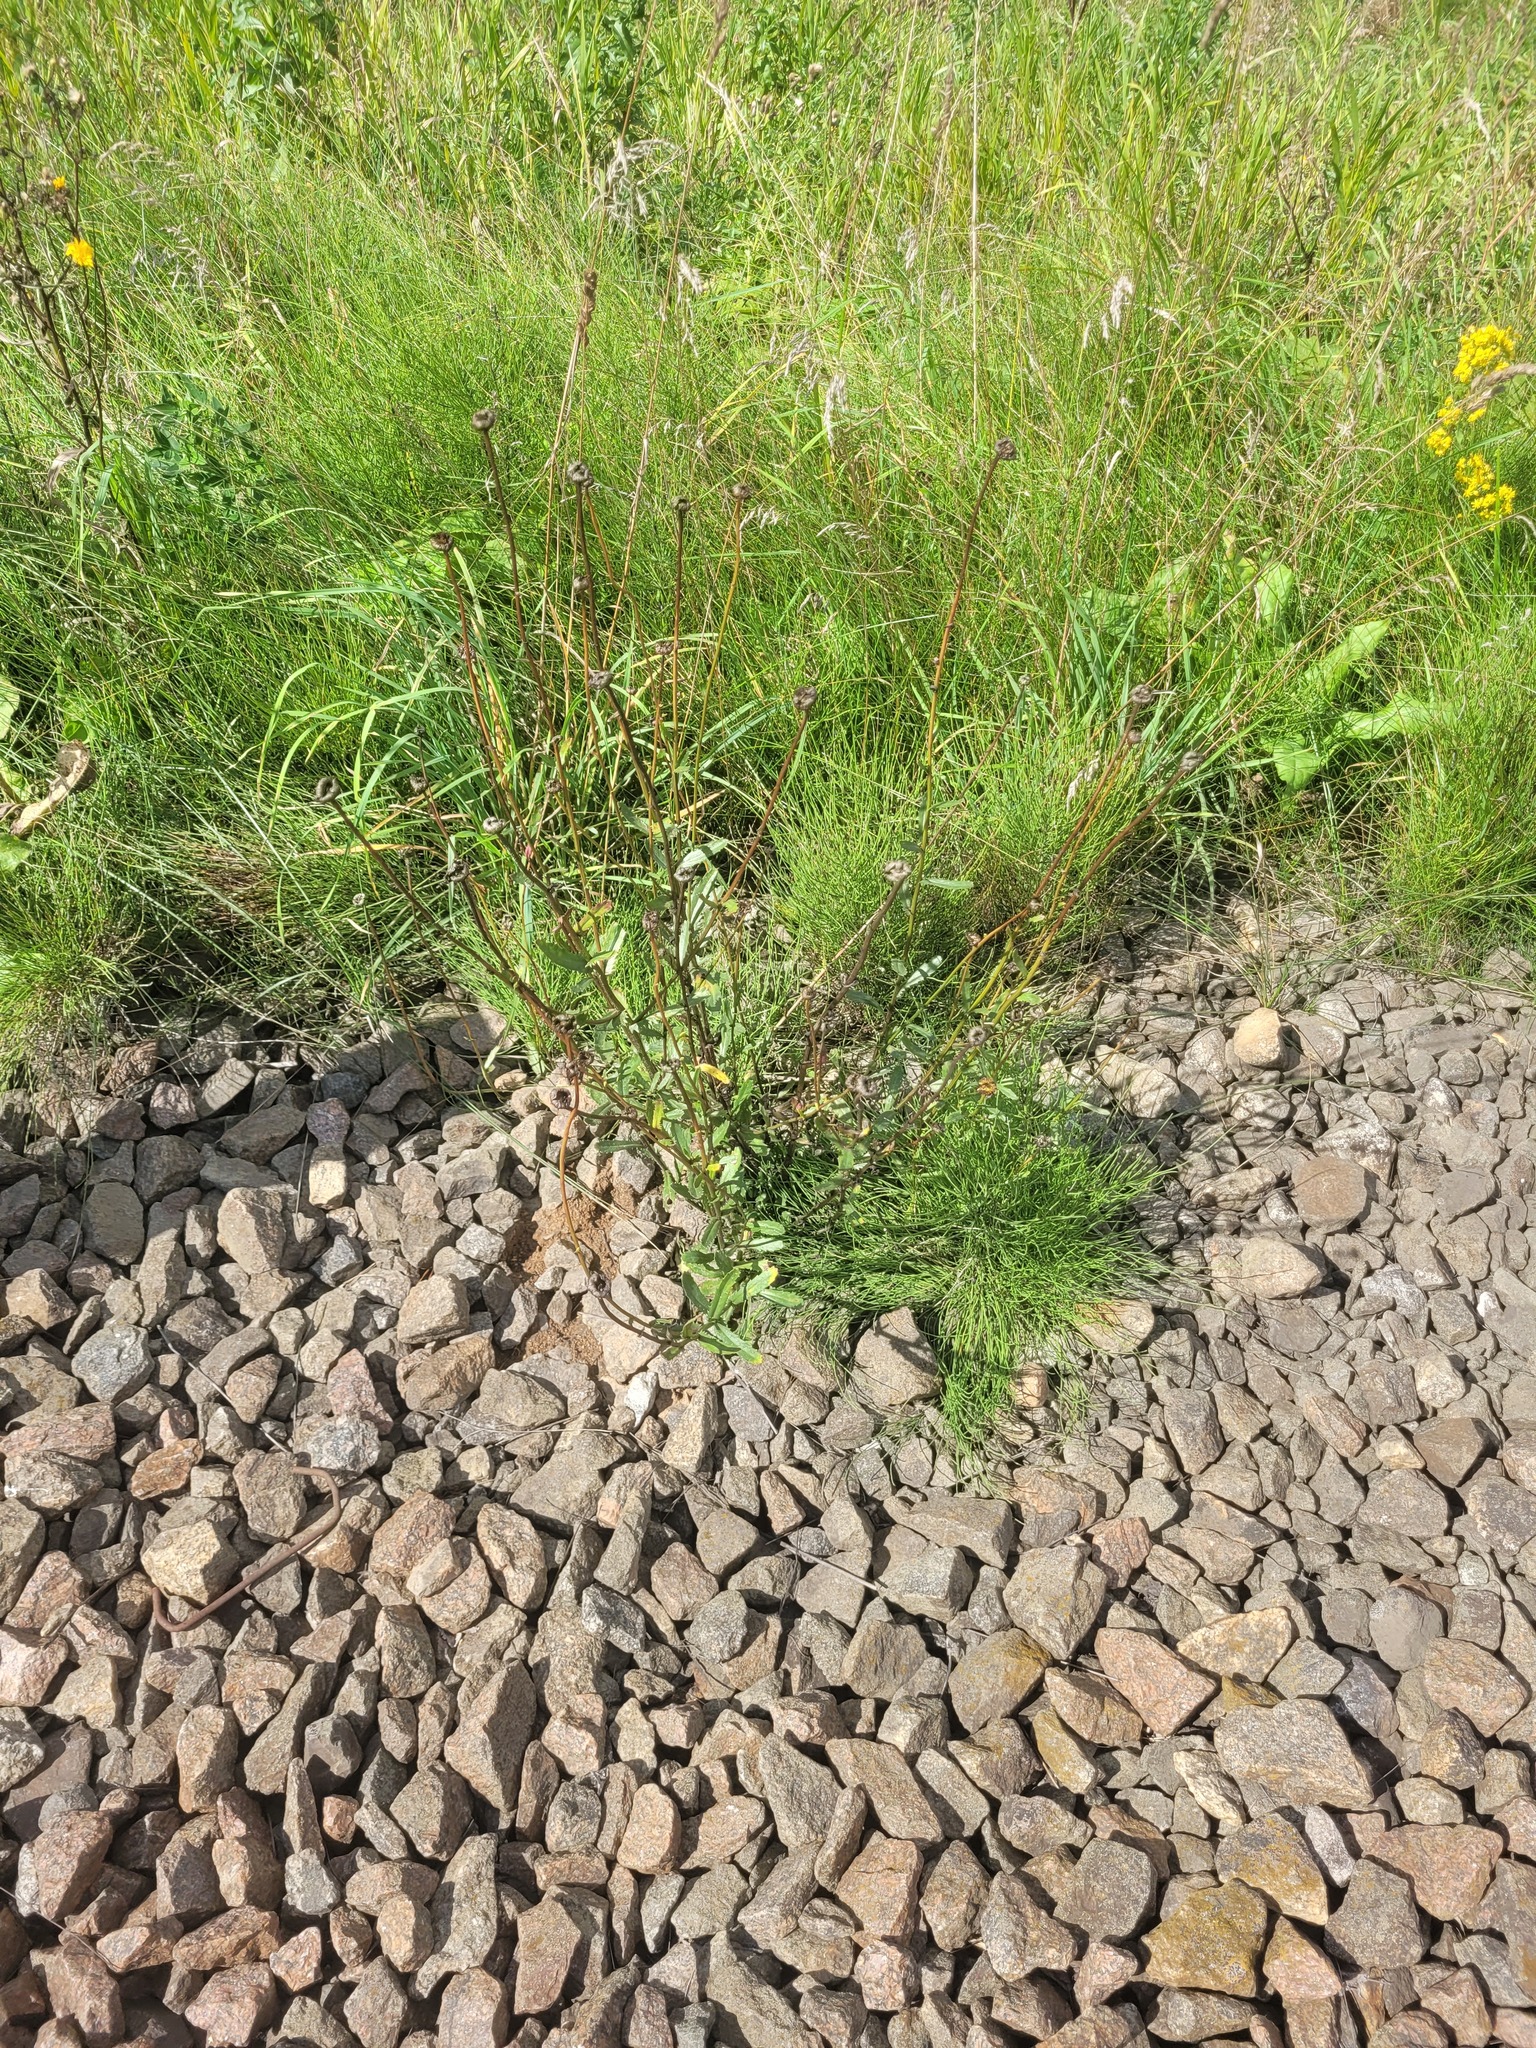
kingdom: Plantae
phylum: Tracheophyta
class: Magnoliopsida
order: Asterales
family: Asteraceae
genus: Leucanthemum
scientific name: Leucanthemum vulgare
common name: Oxeye daisy
